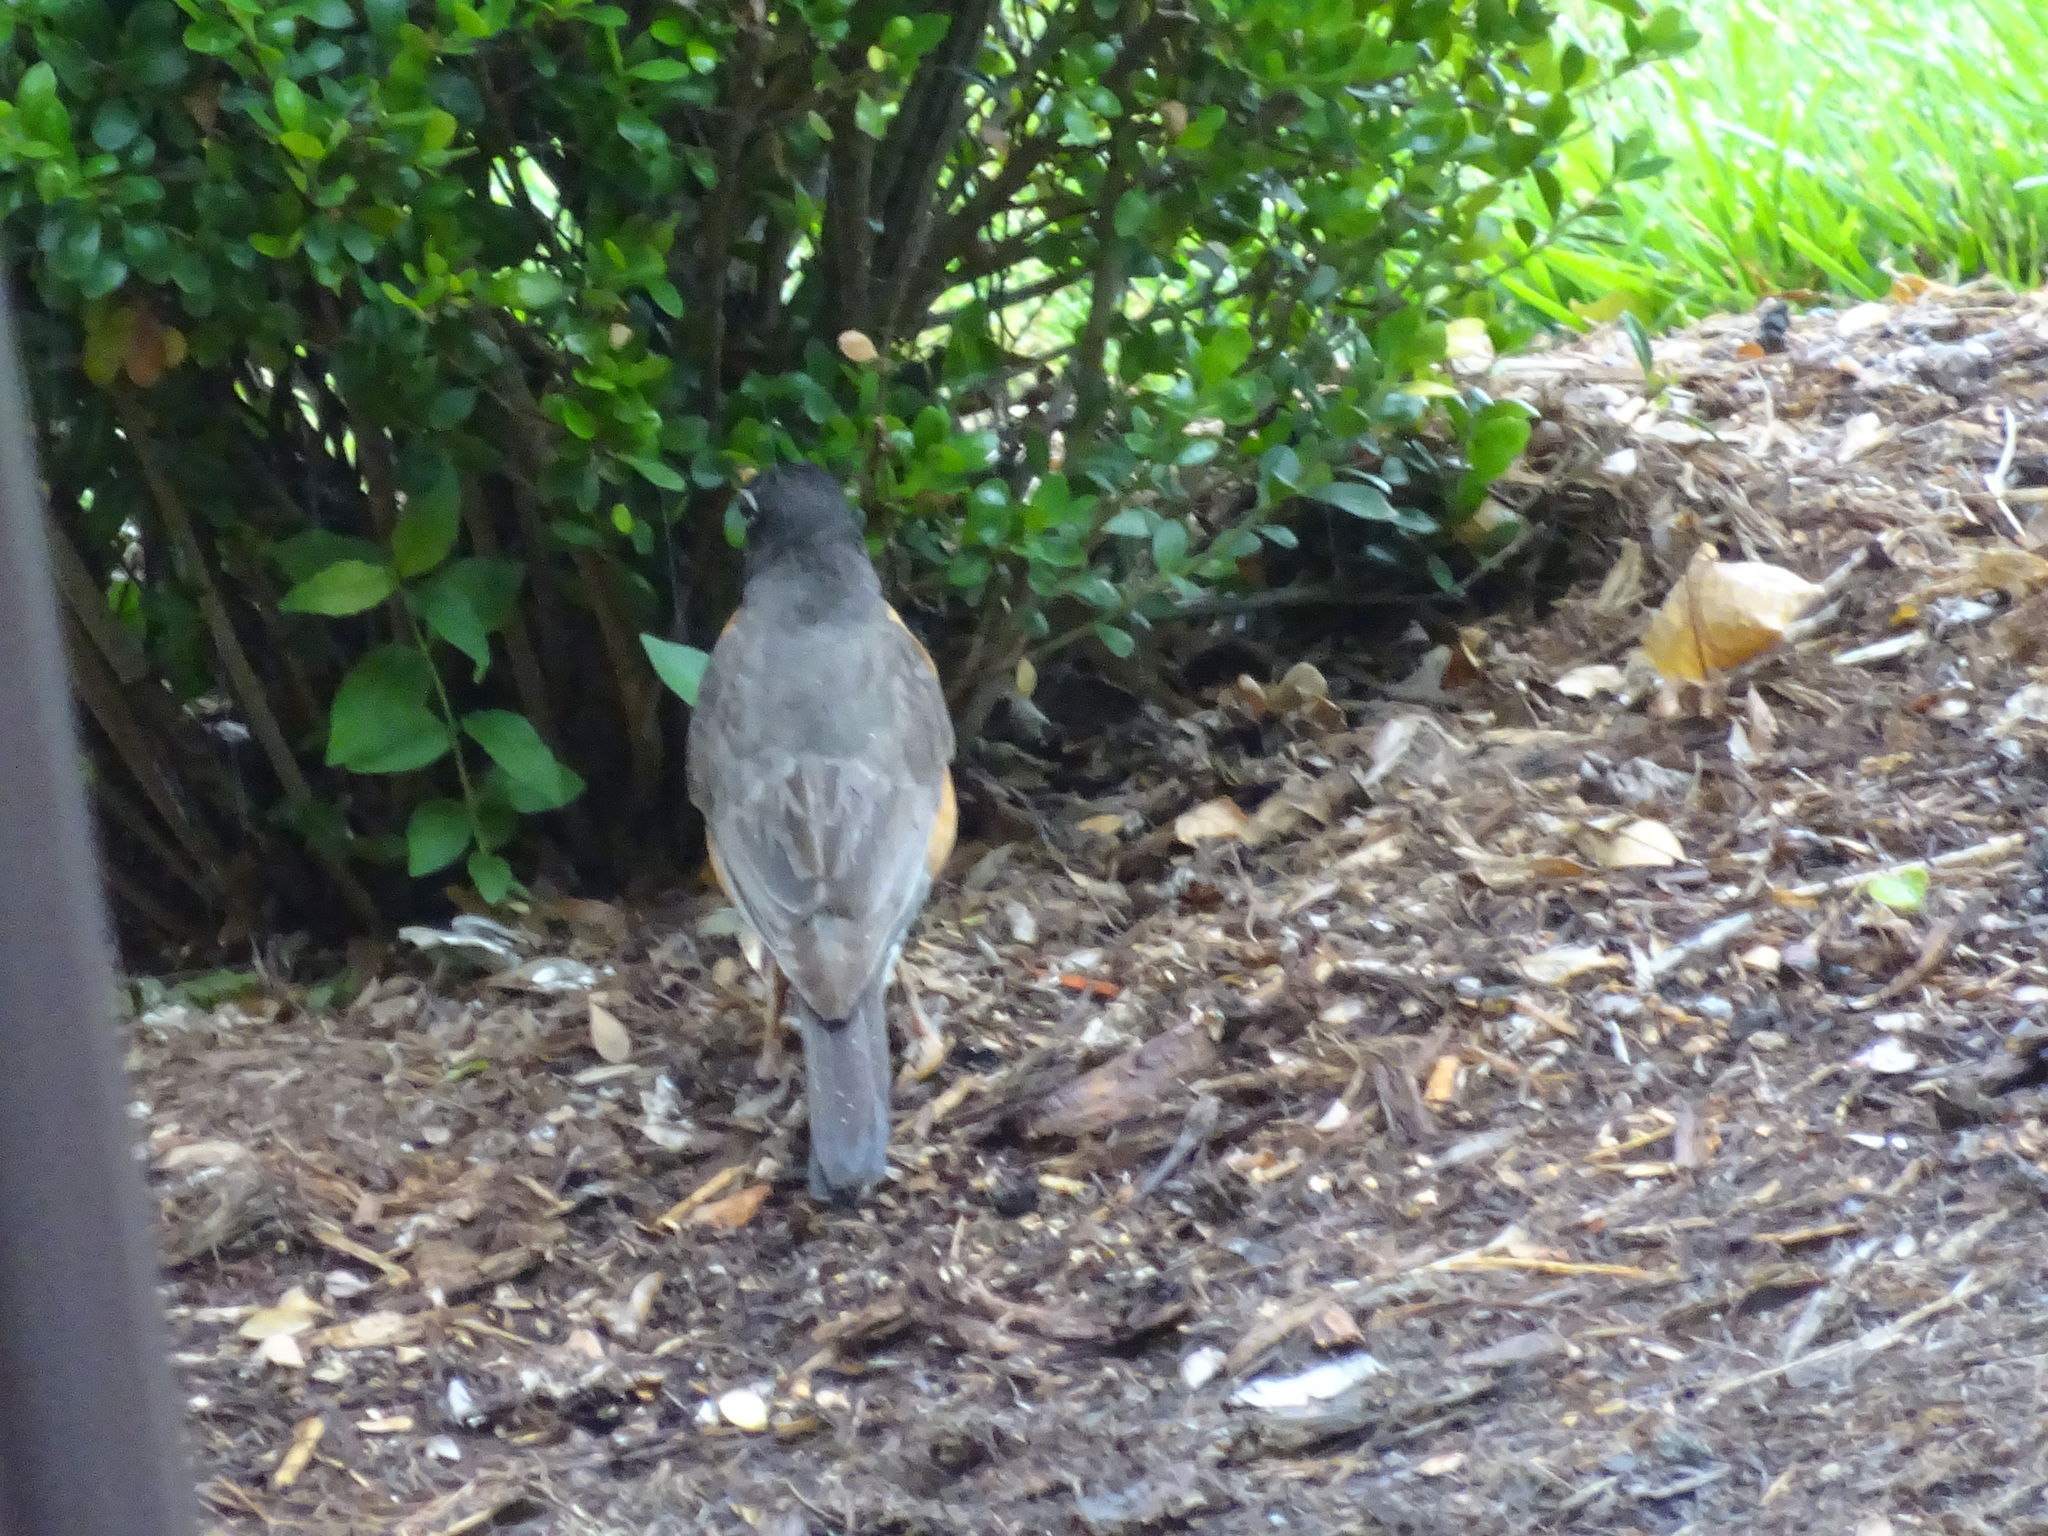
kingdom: Animalia
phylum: Chordata
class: Aves
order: Passeriformes
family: Turdidae
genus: Turdus
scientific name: Turdus migratorius
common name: American robin
